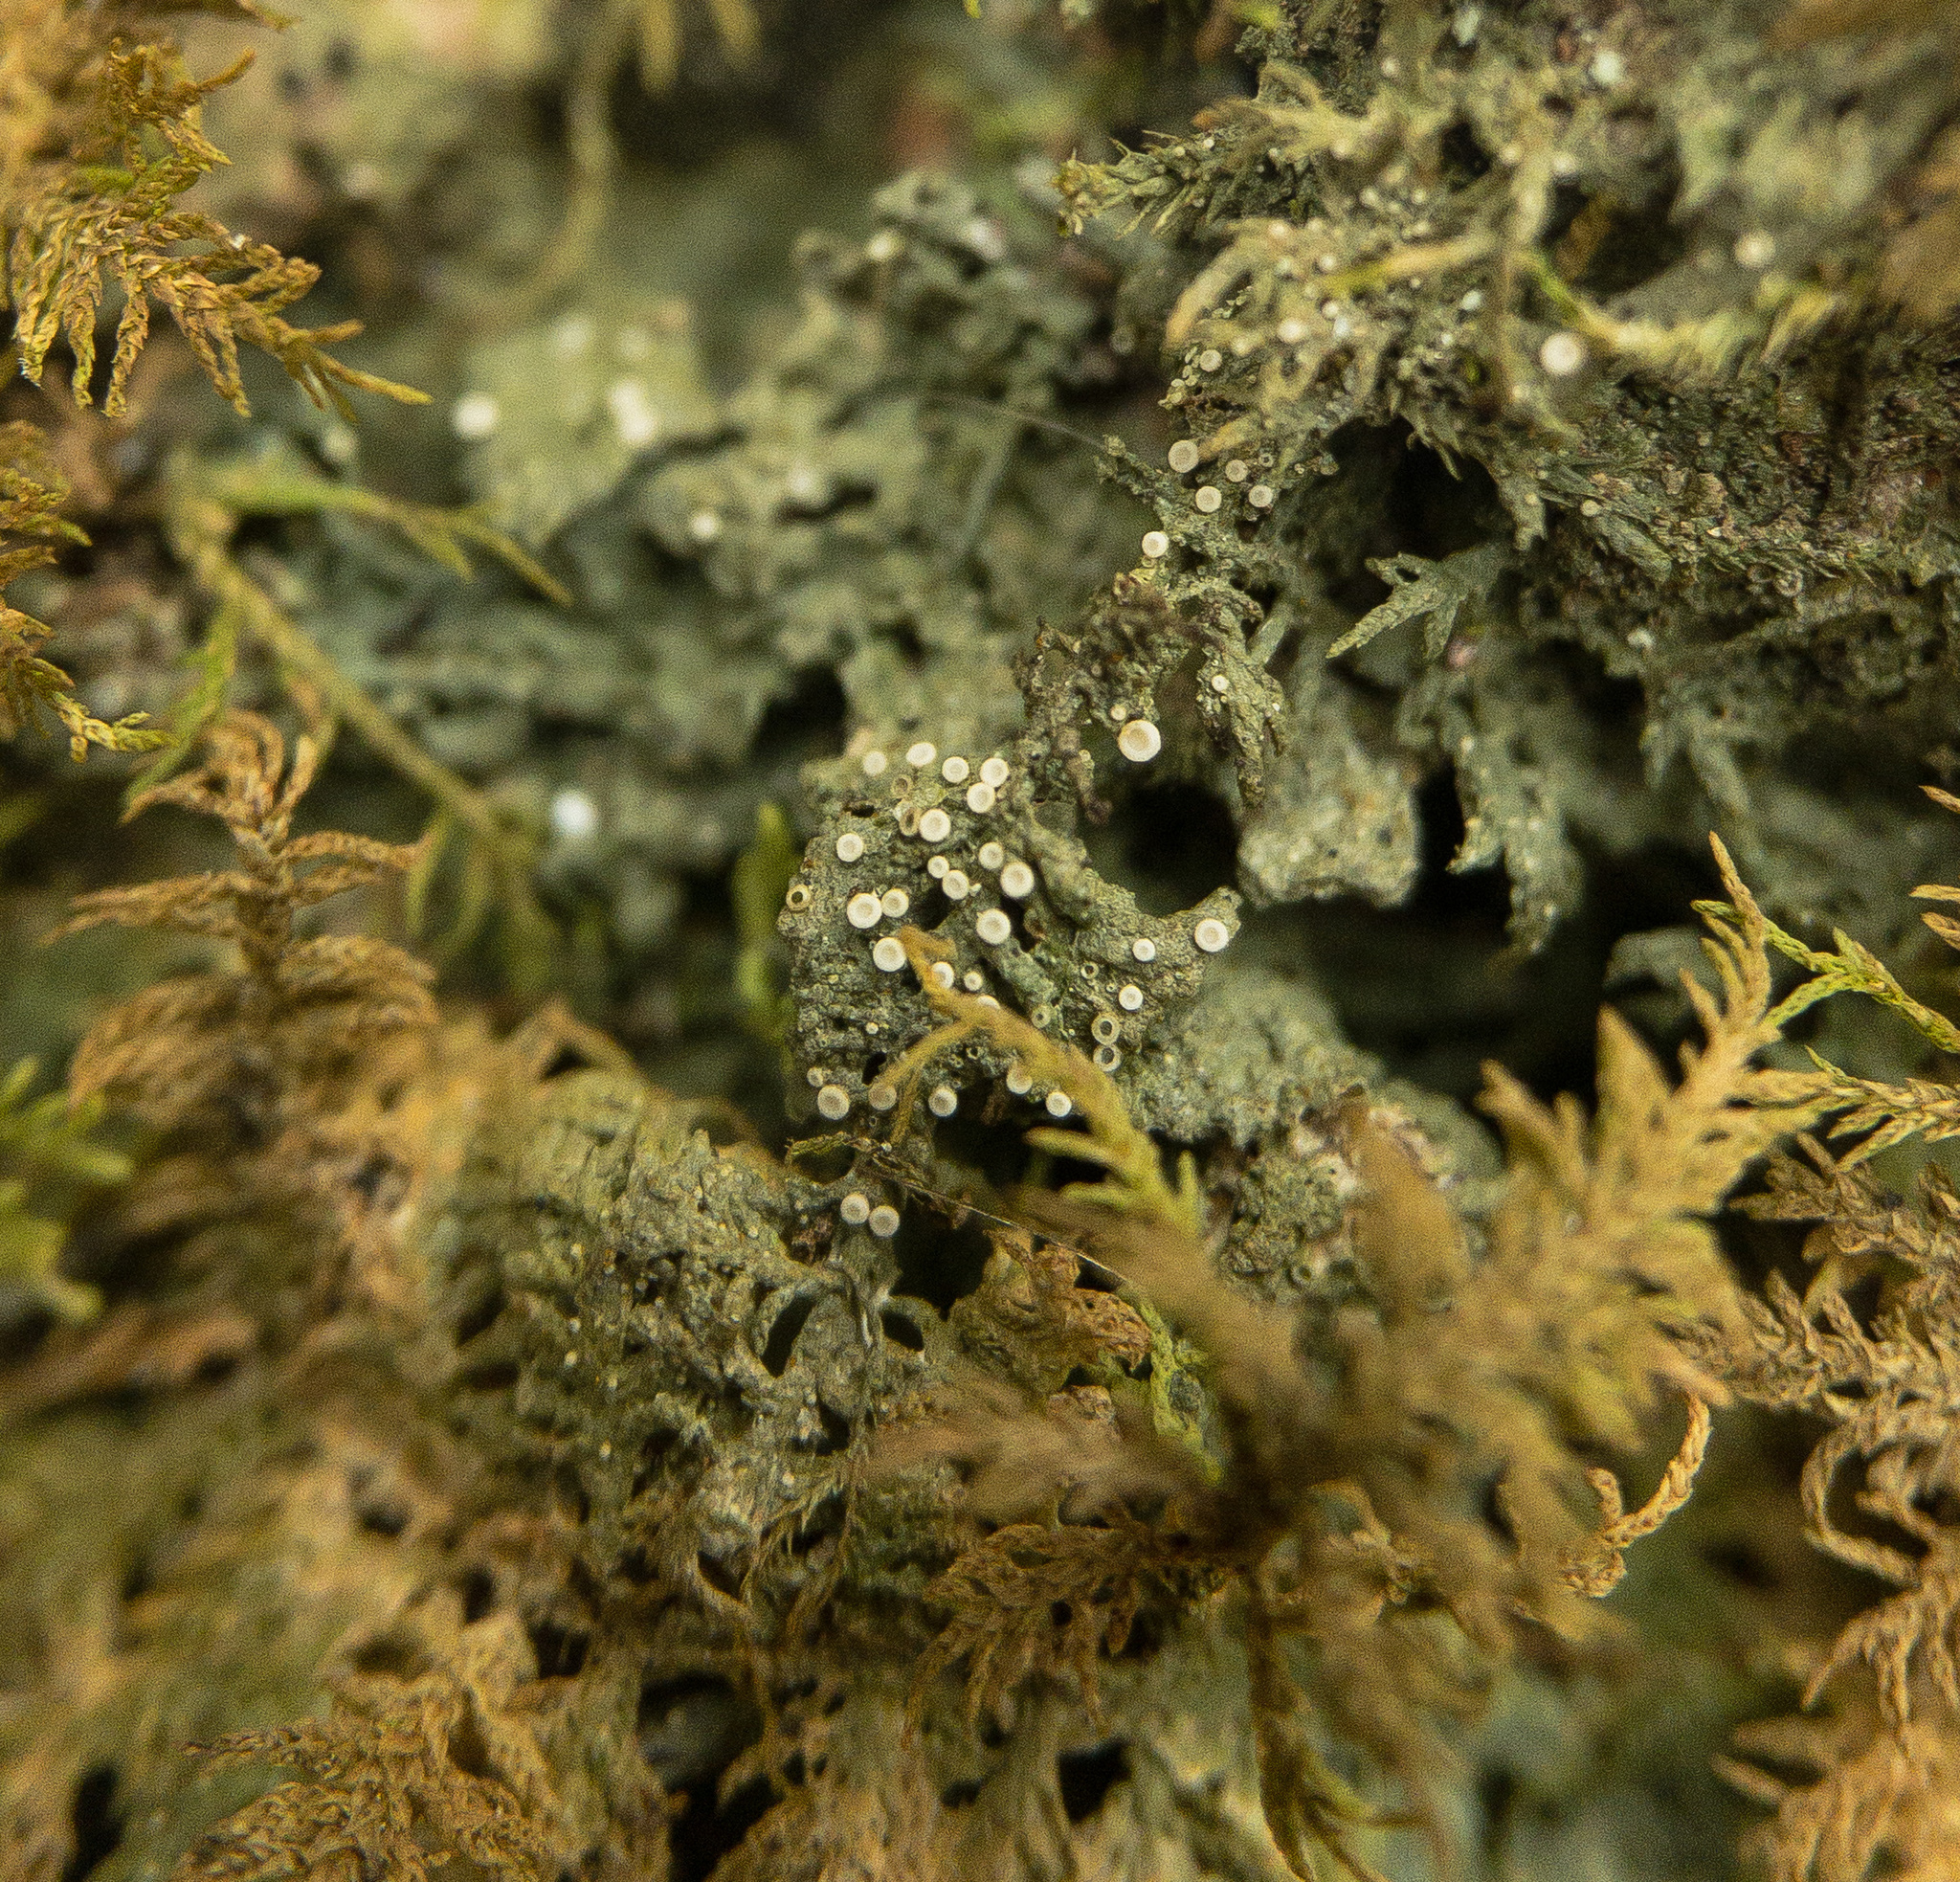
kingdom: Fungi
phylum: Ascomycota
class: Lecanoromycetes
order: Ostropales
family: Coenogoniaceae
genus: Coenogonium
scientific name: Coenogonium pineti
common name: Pink dimple lichen
